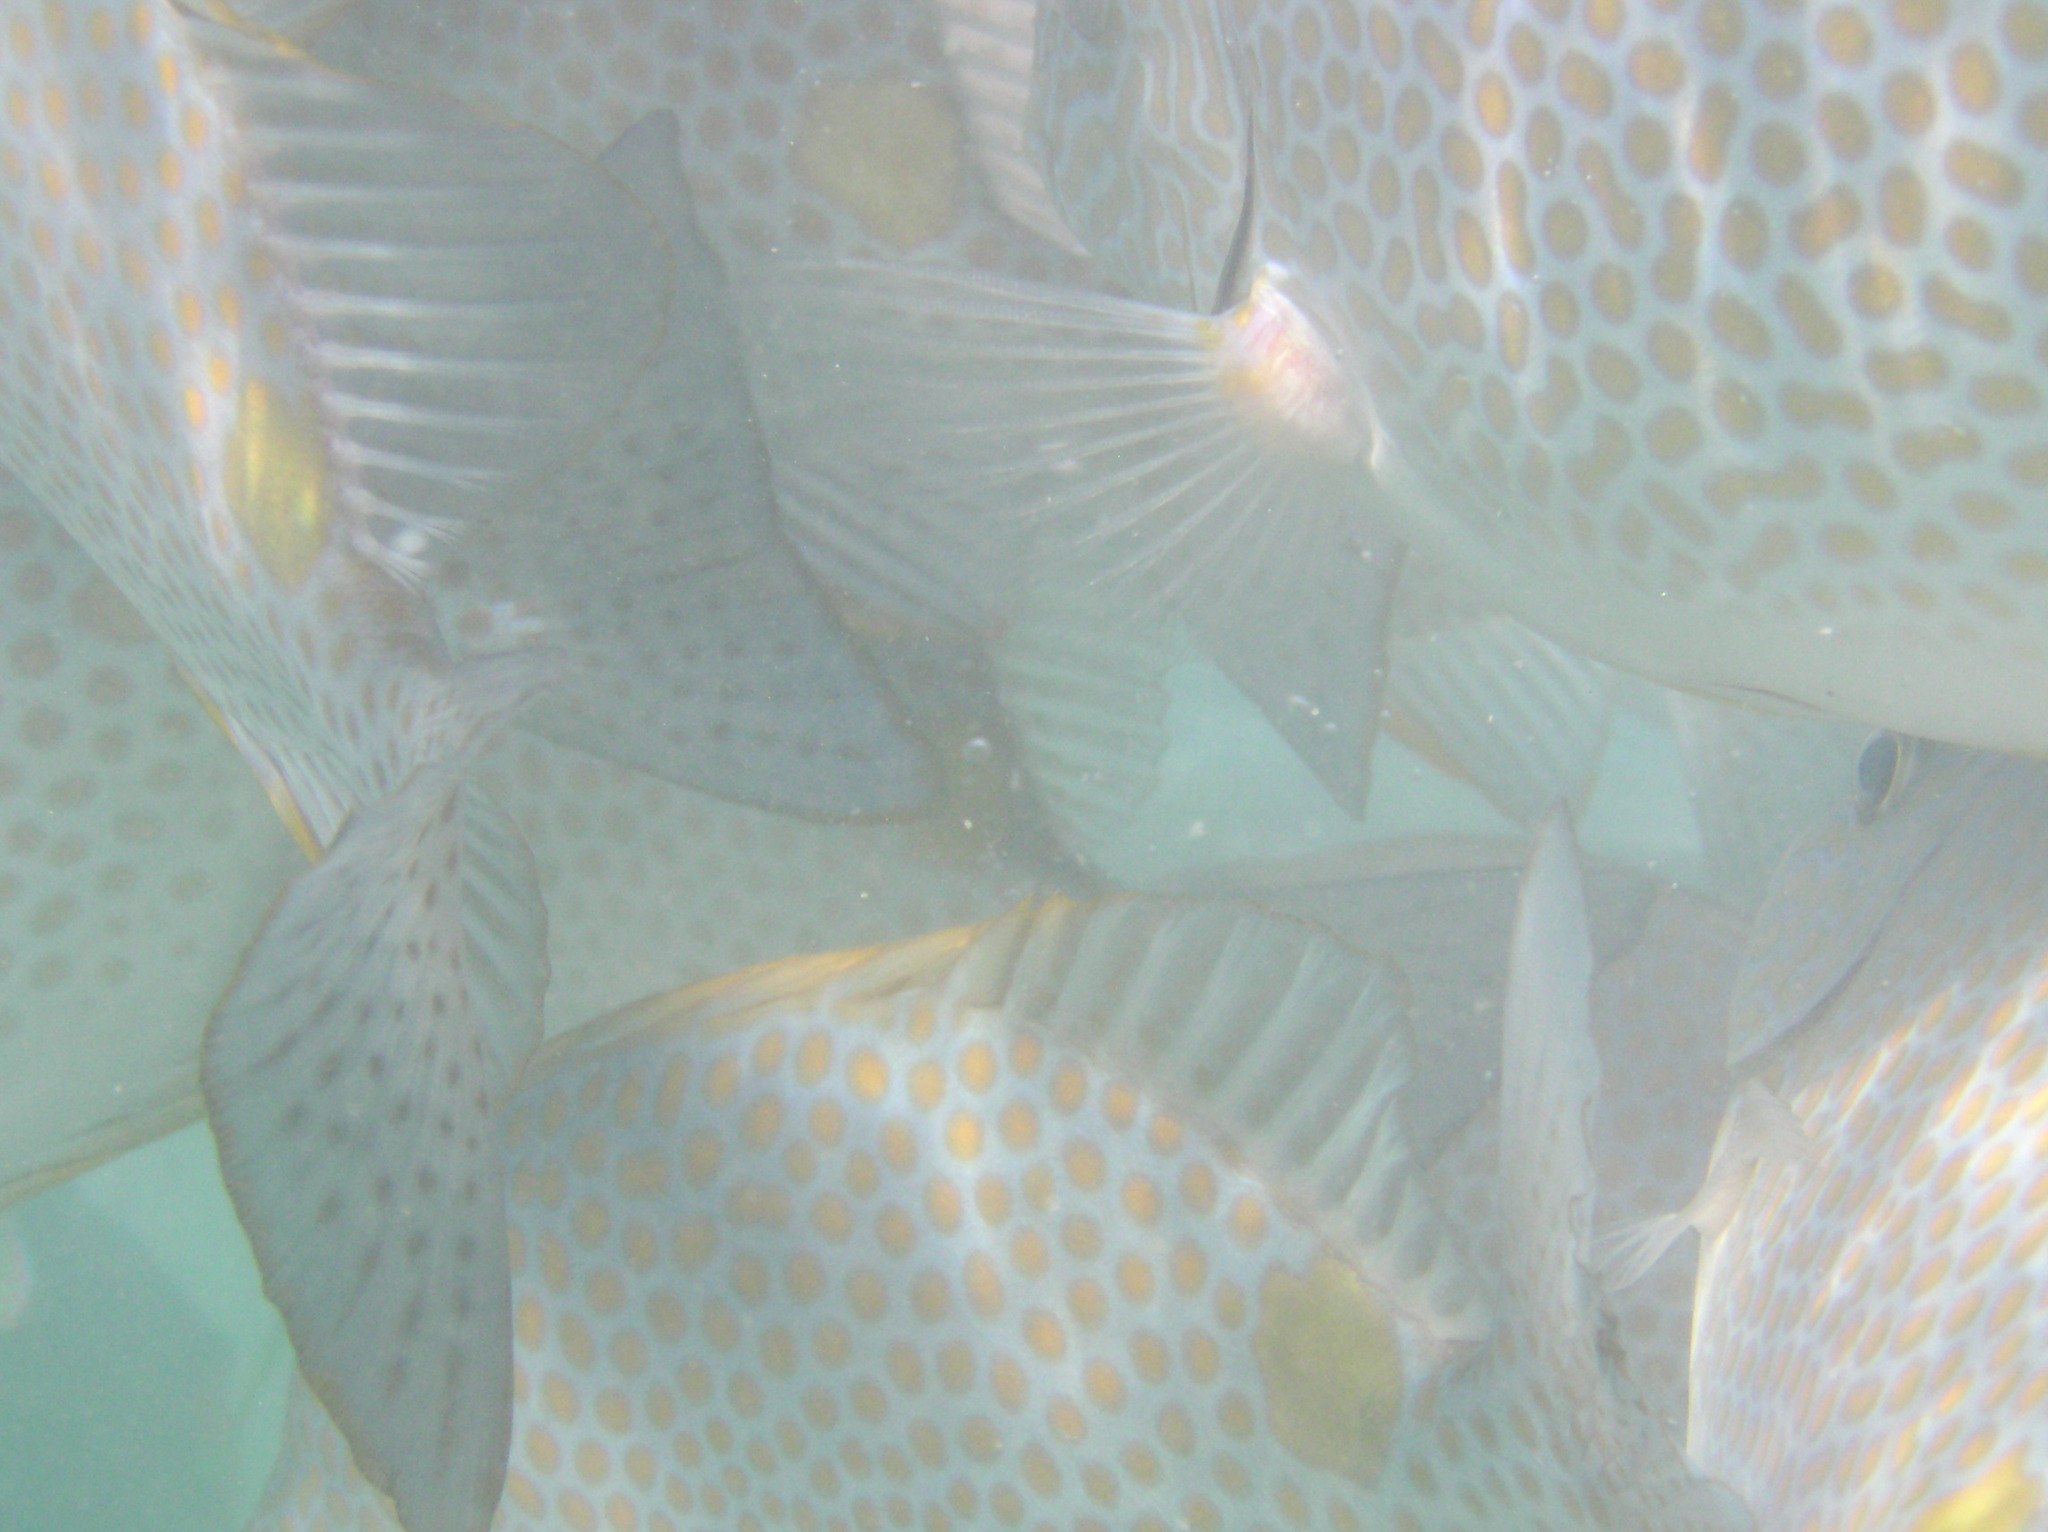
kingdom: Animalia
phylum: Chordata
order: Perciformes
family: Siganidae
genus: Siganus
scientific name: Siganus guttatus
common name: Golden rabbitfish
